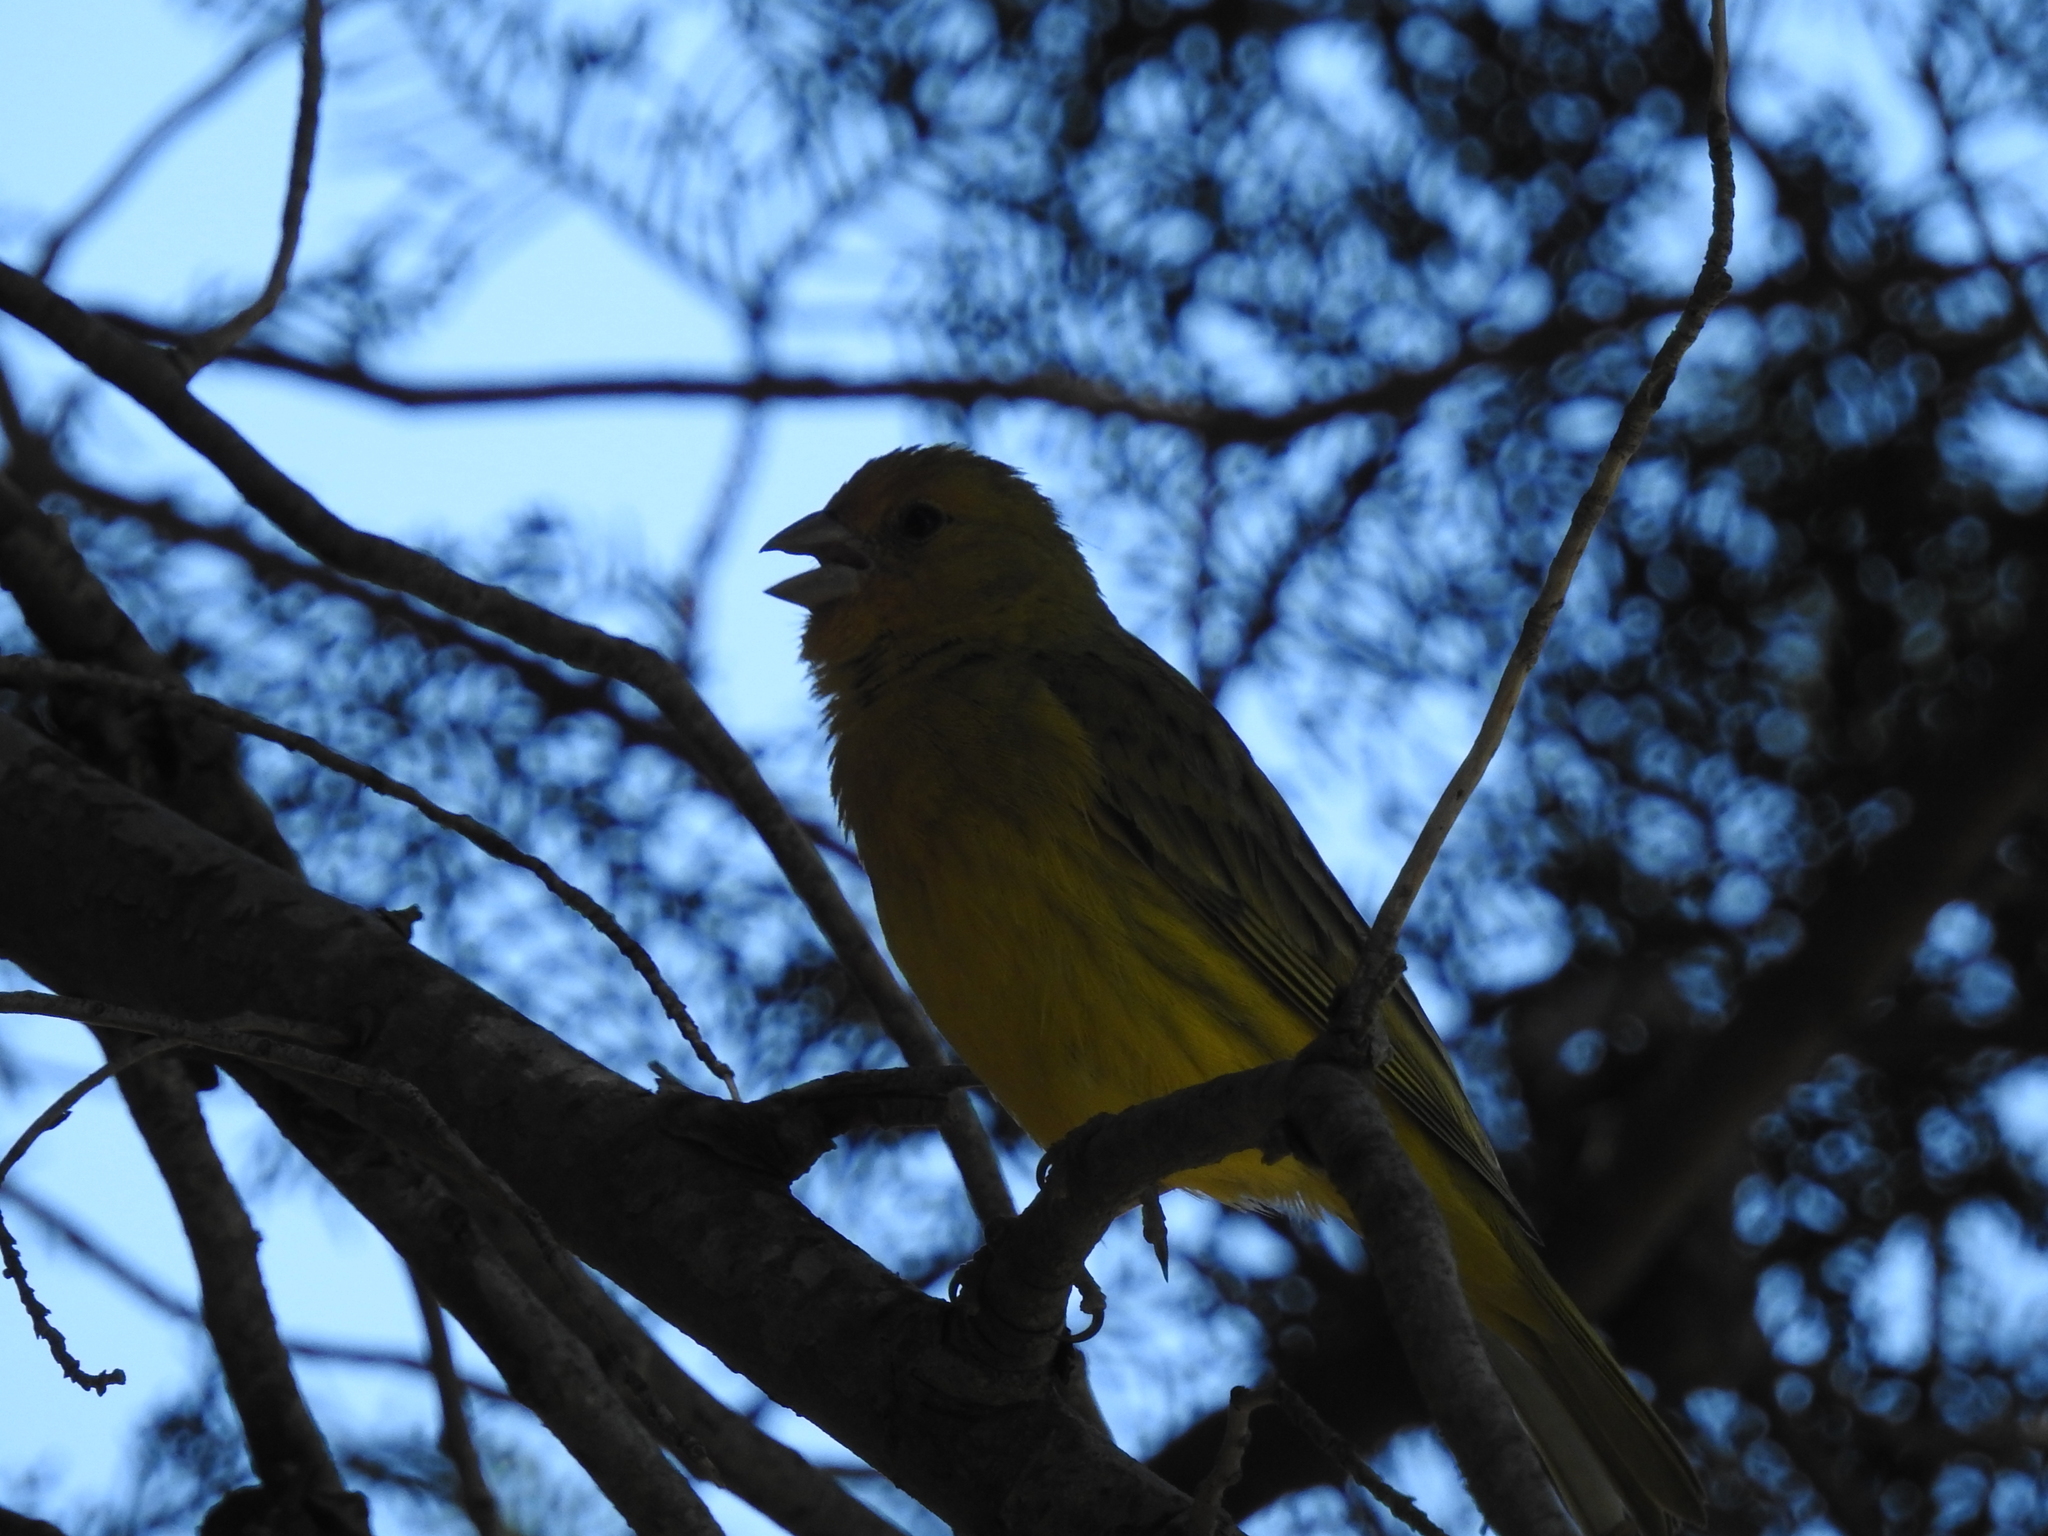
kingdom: Animalia
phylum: Chordata
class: Aves
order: Passeriformes
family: Thraupidae
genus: Sicalis
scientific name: Sicalis flaveola
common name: Saffron finch
